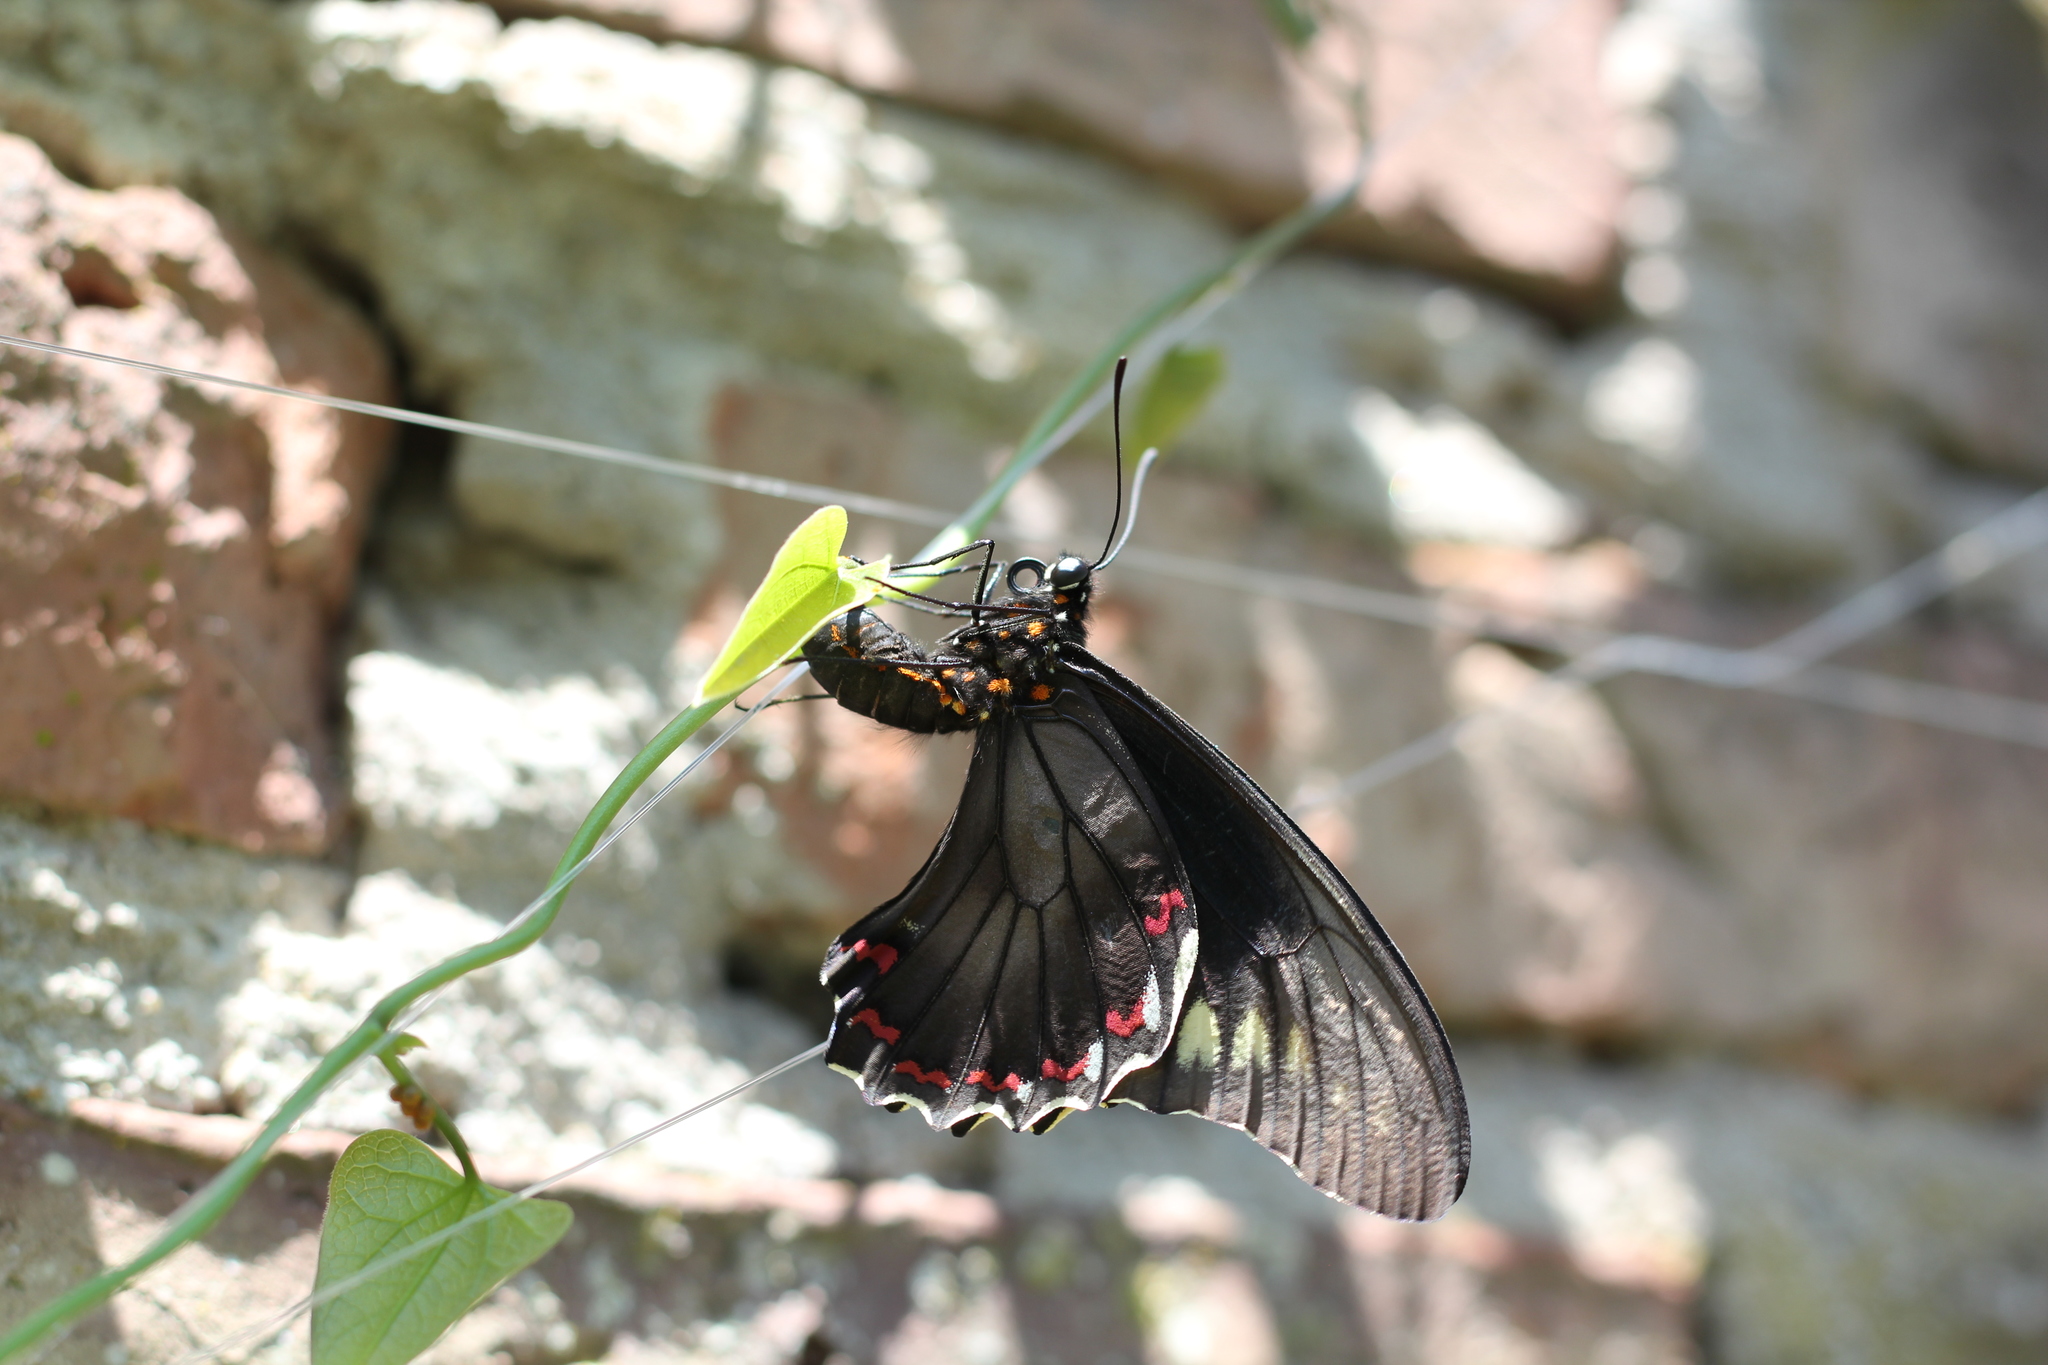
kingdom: Animalia
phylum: Arthropoda
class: Insecta
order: Lepidoptera
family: Papilionidae
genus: Battus
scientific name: Battus polydamas
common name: Polydamas swallowtail
